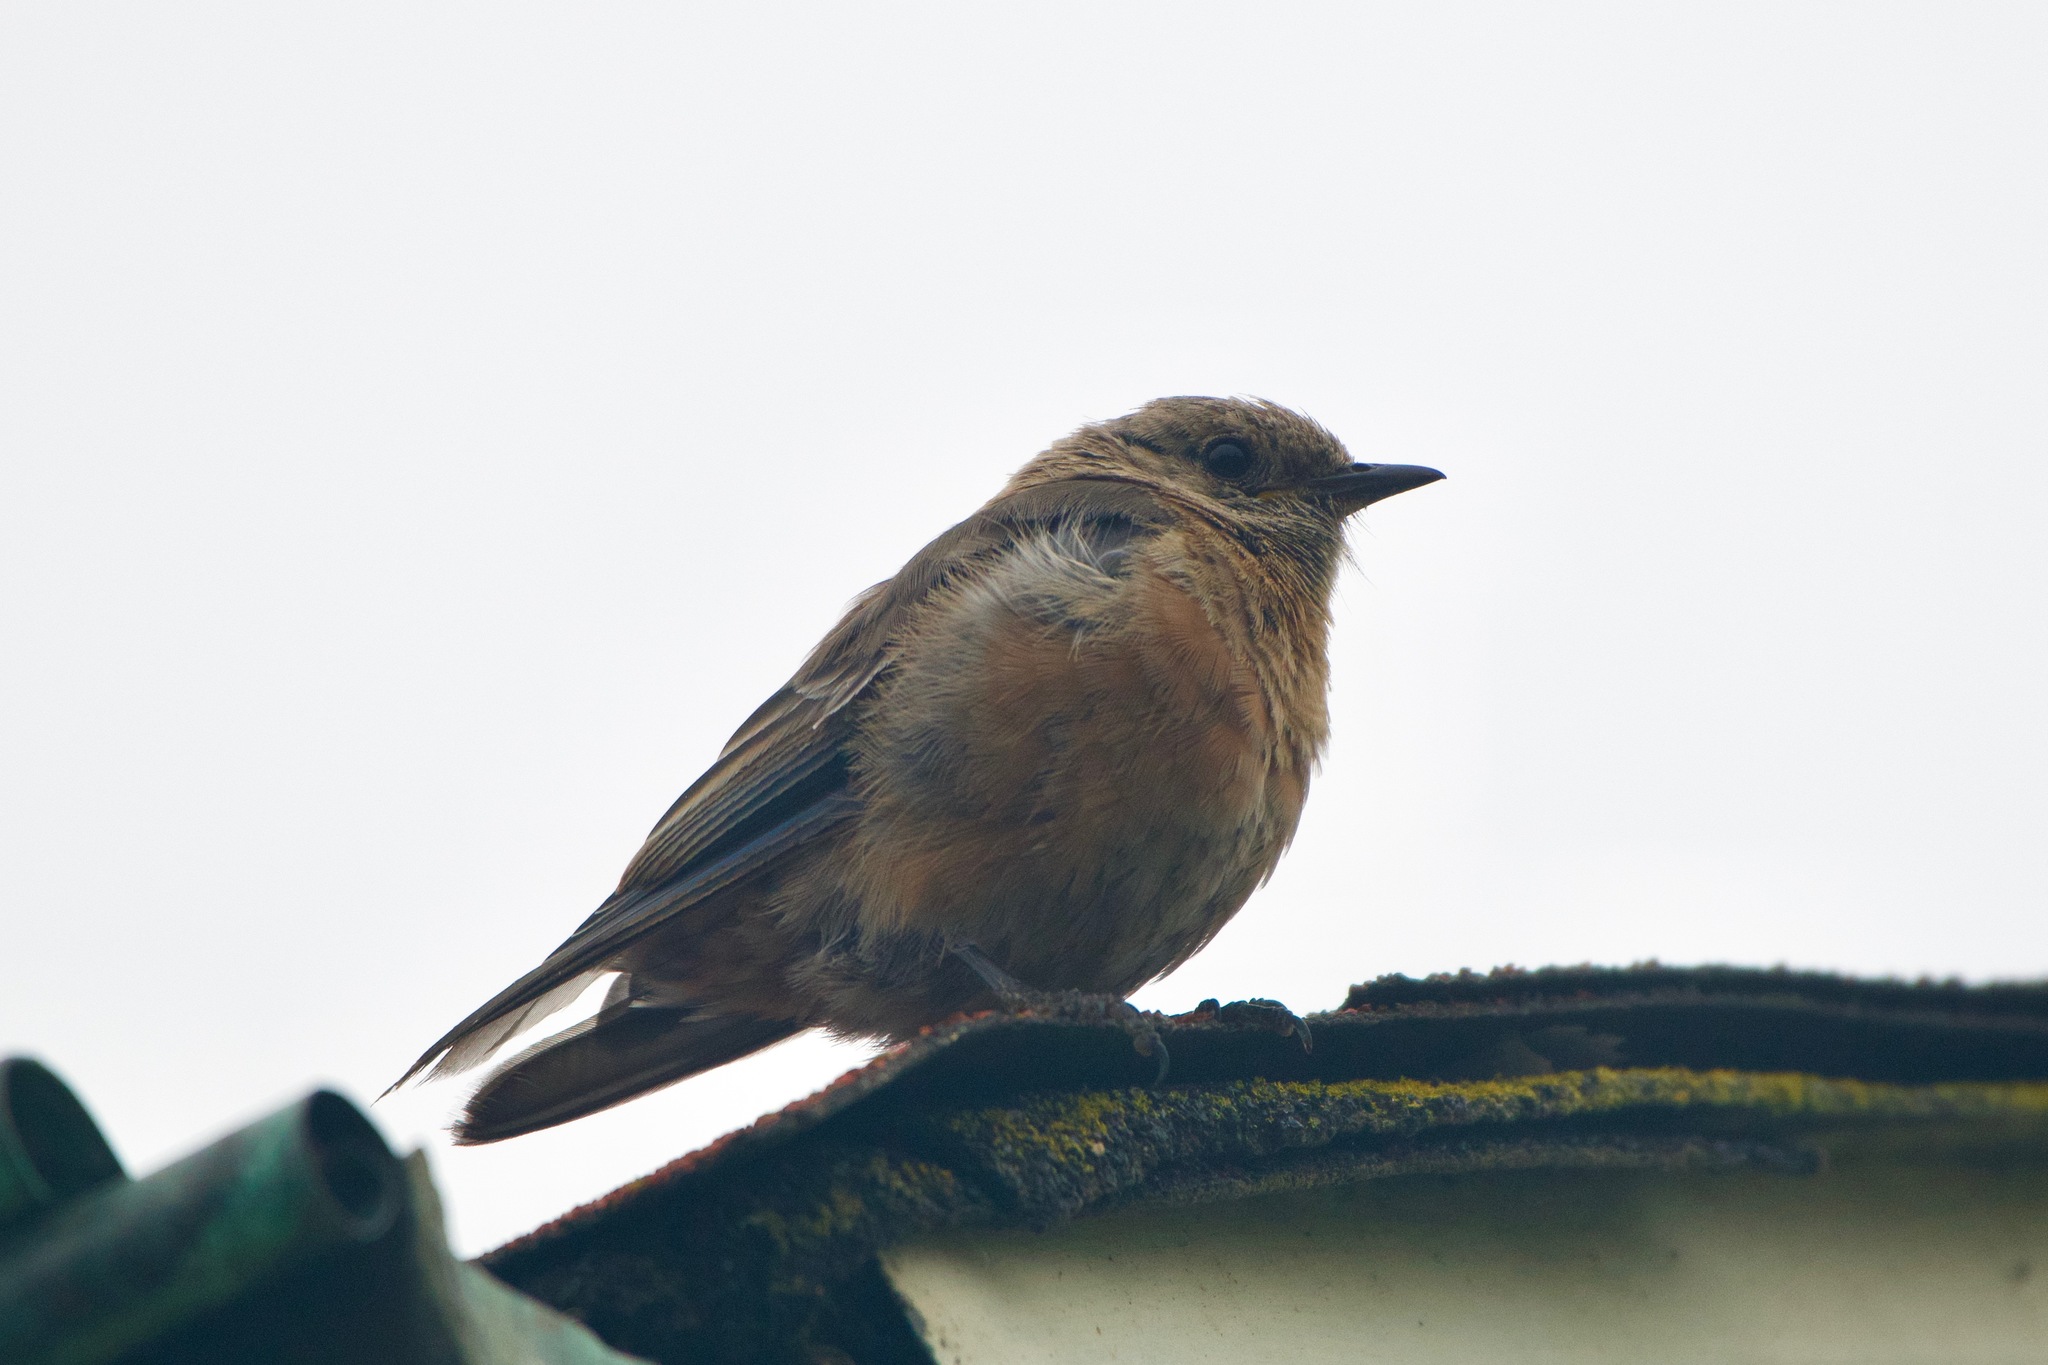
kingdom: Animalia
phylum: Chordata
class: Aves
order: Passeriformes
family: Turdidae
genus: Sialia
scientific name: Sialia mexicana
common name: Western bluebird
